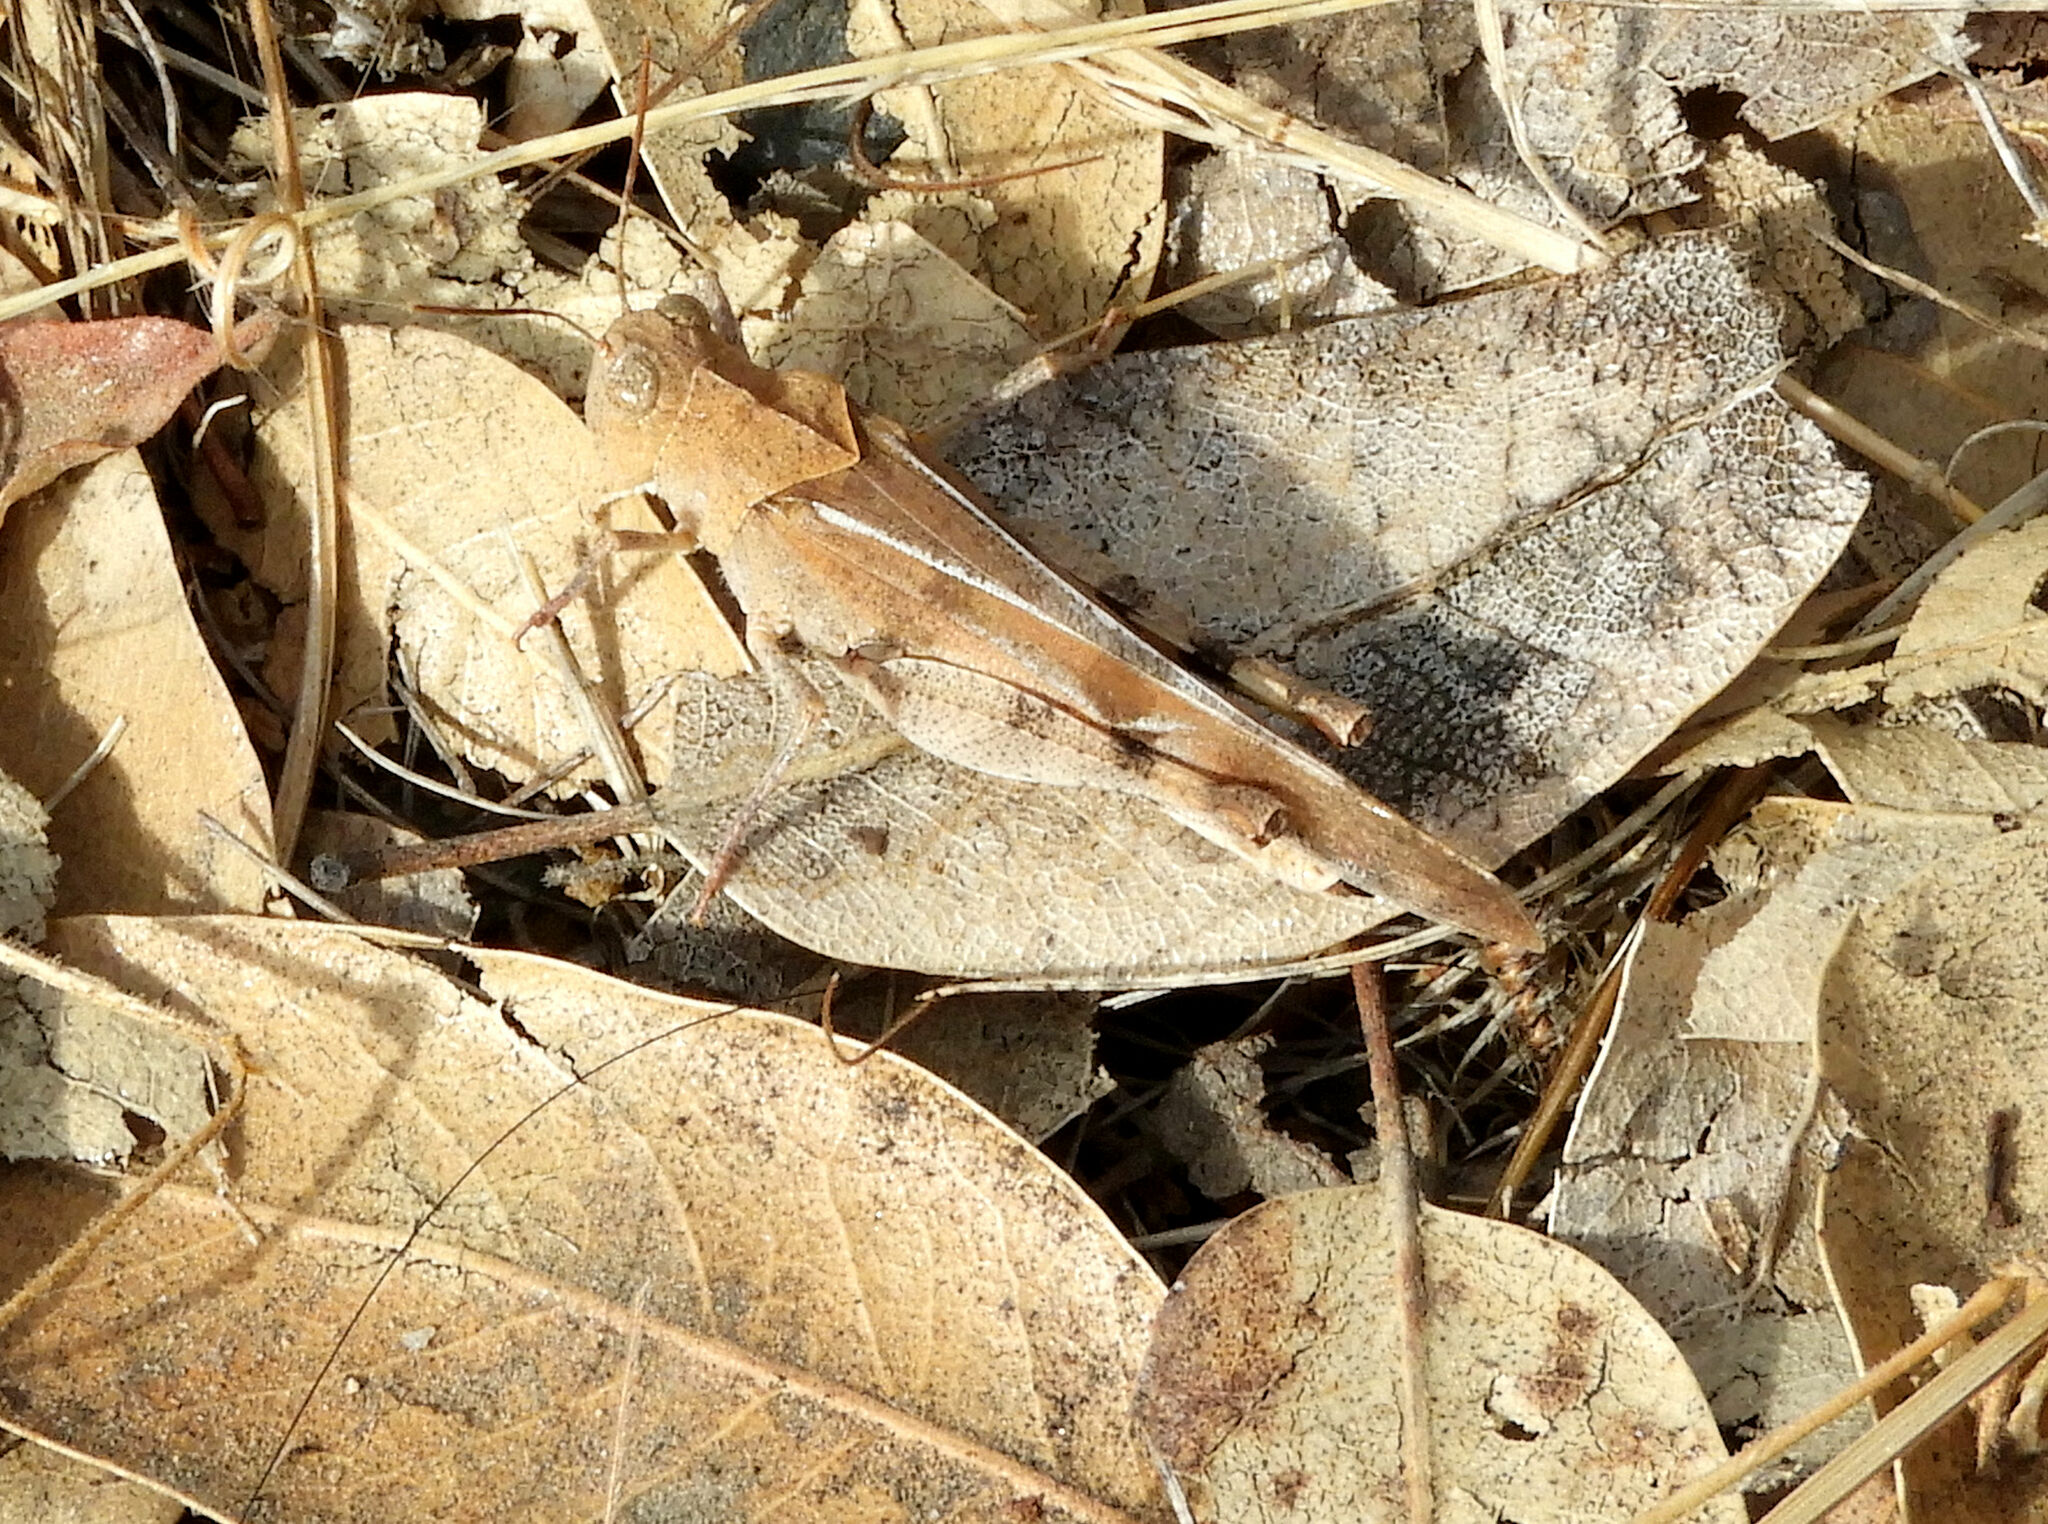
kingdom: Animalia
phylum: Arthropoda
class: Insecta
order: Orthoptera
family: Acrididae
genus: Dissosteira
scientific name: Dissosteira pictipennis
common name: California rose-winged grasshopper
